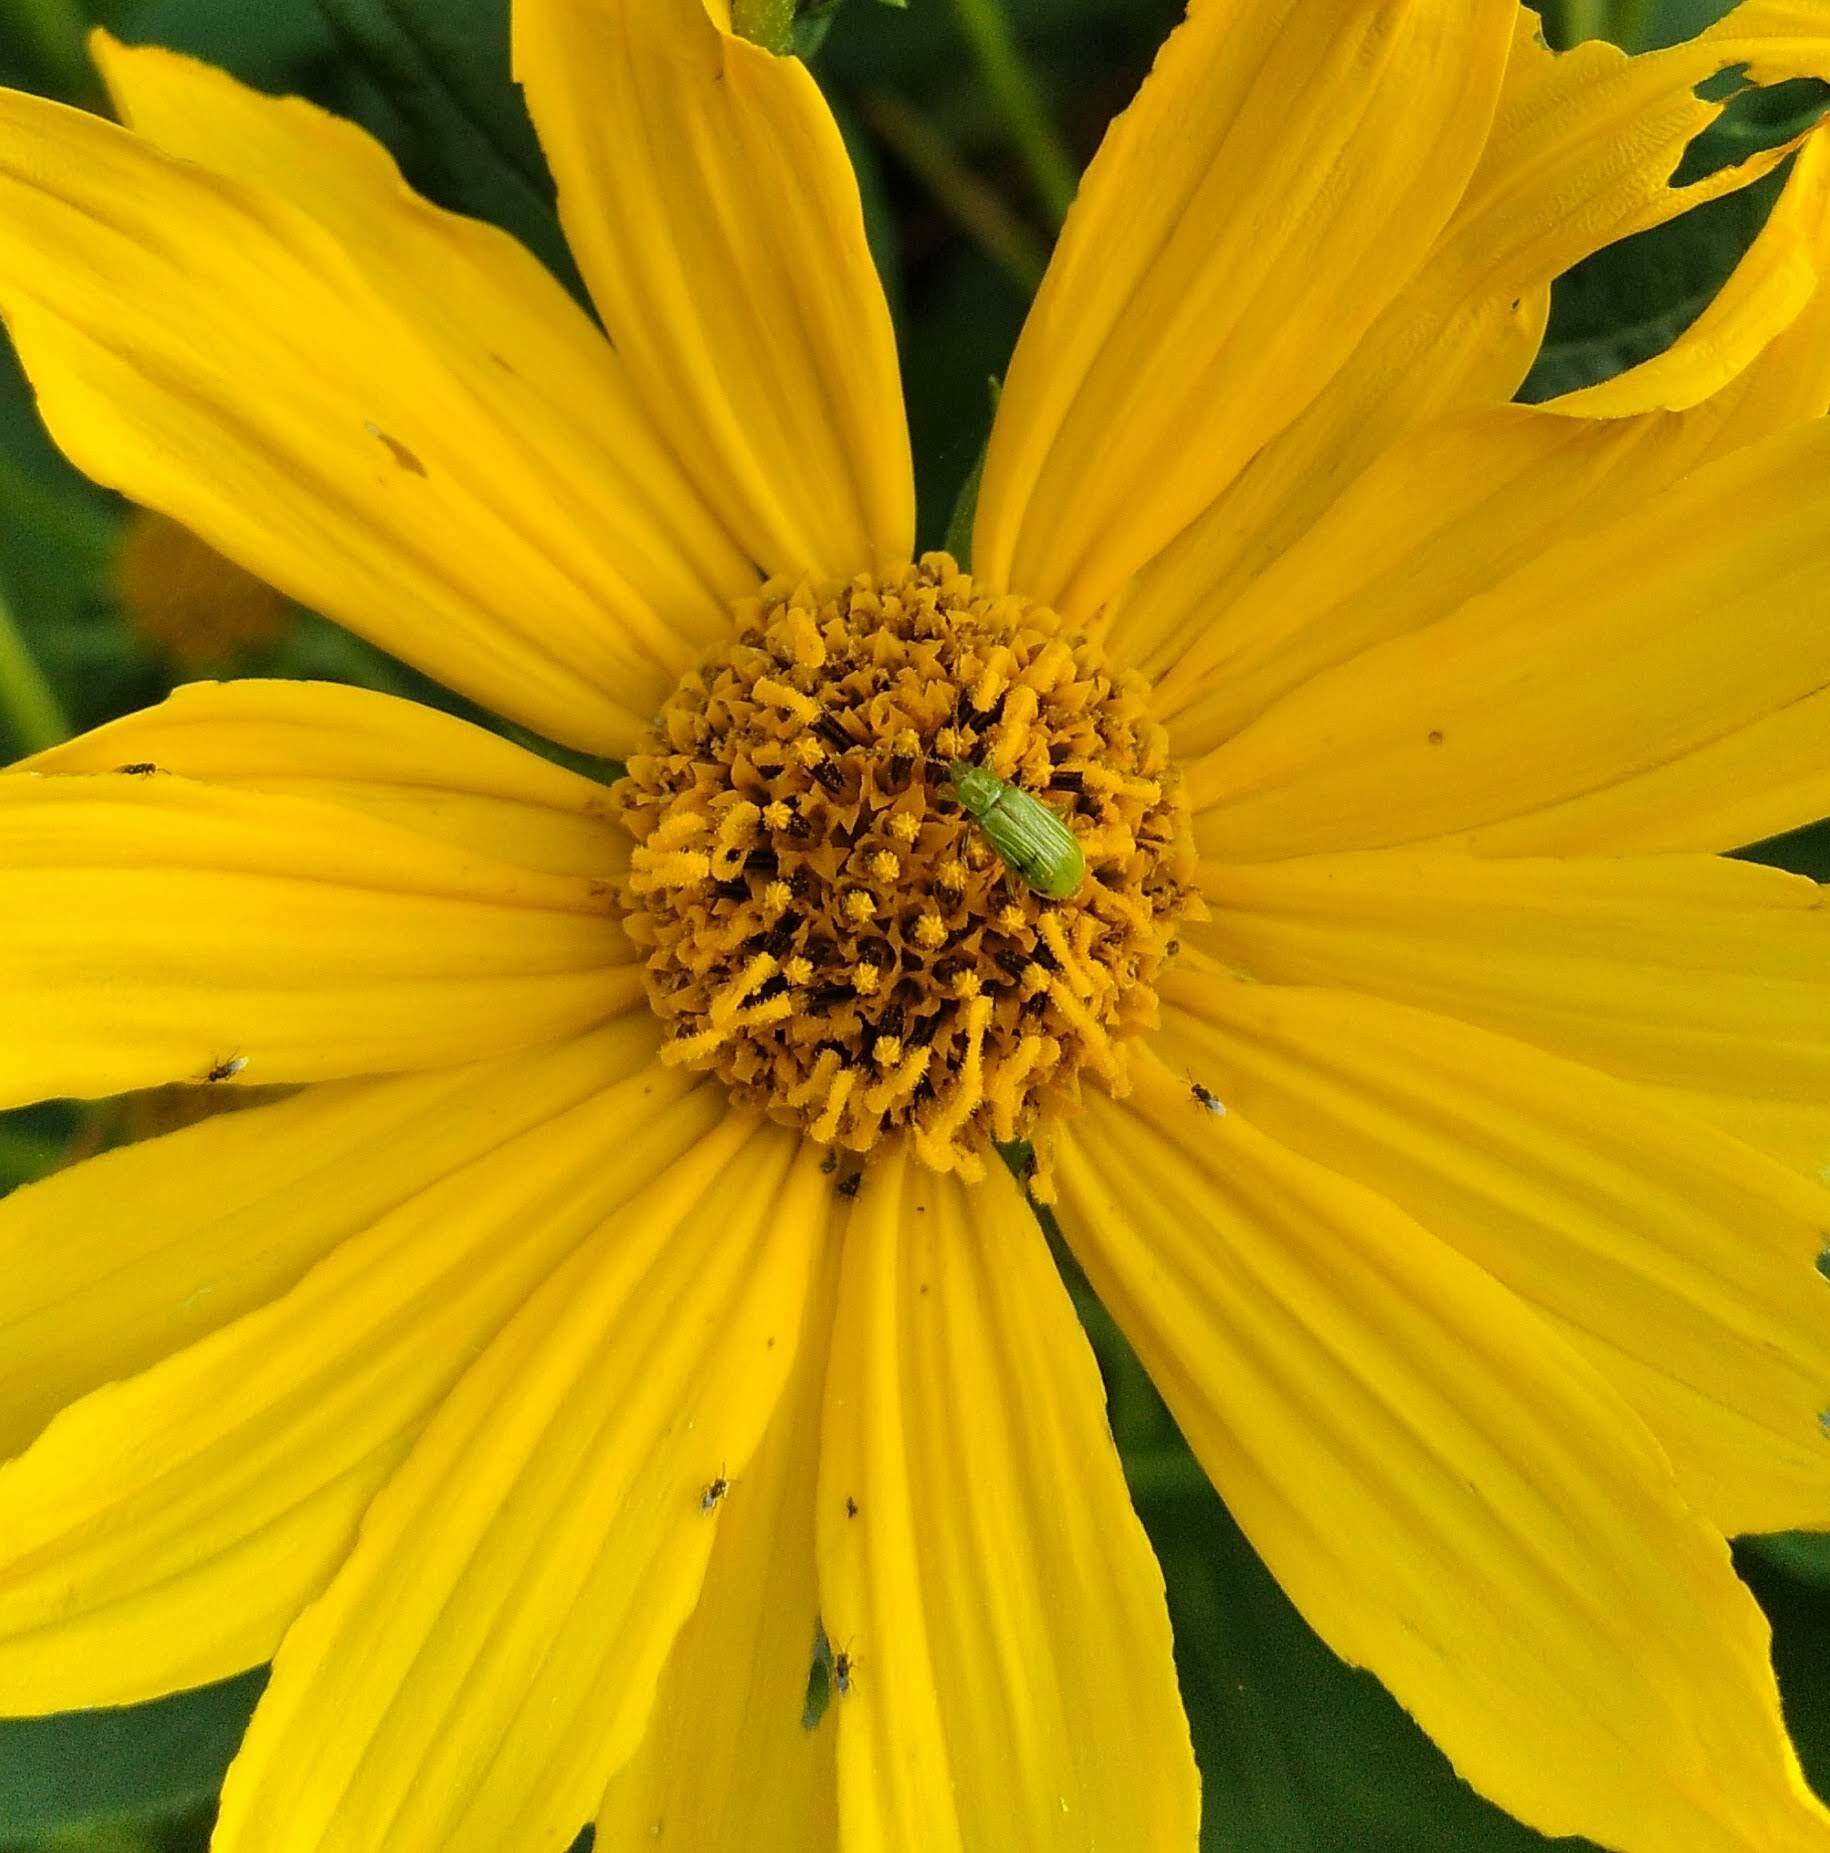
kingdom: Animalia
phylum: Arthropoda
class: Insecta
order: Coleoptera
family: Chrysomelidae
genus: Diabrotica
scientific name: Diabrotica barberi
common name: Northern corn rootworm
